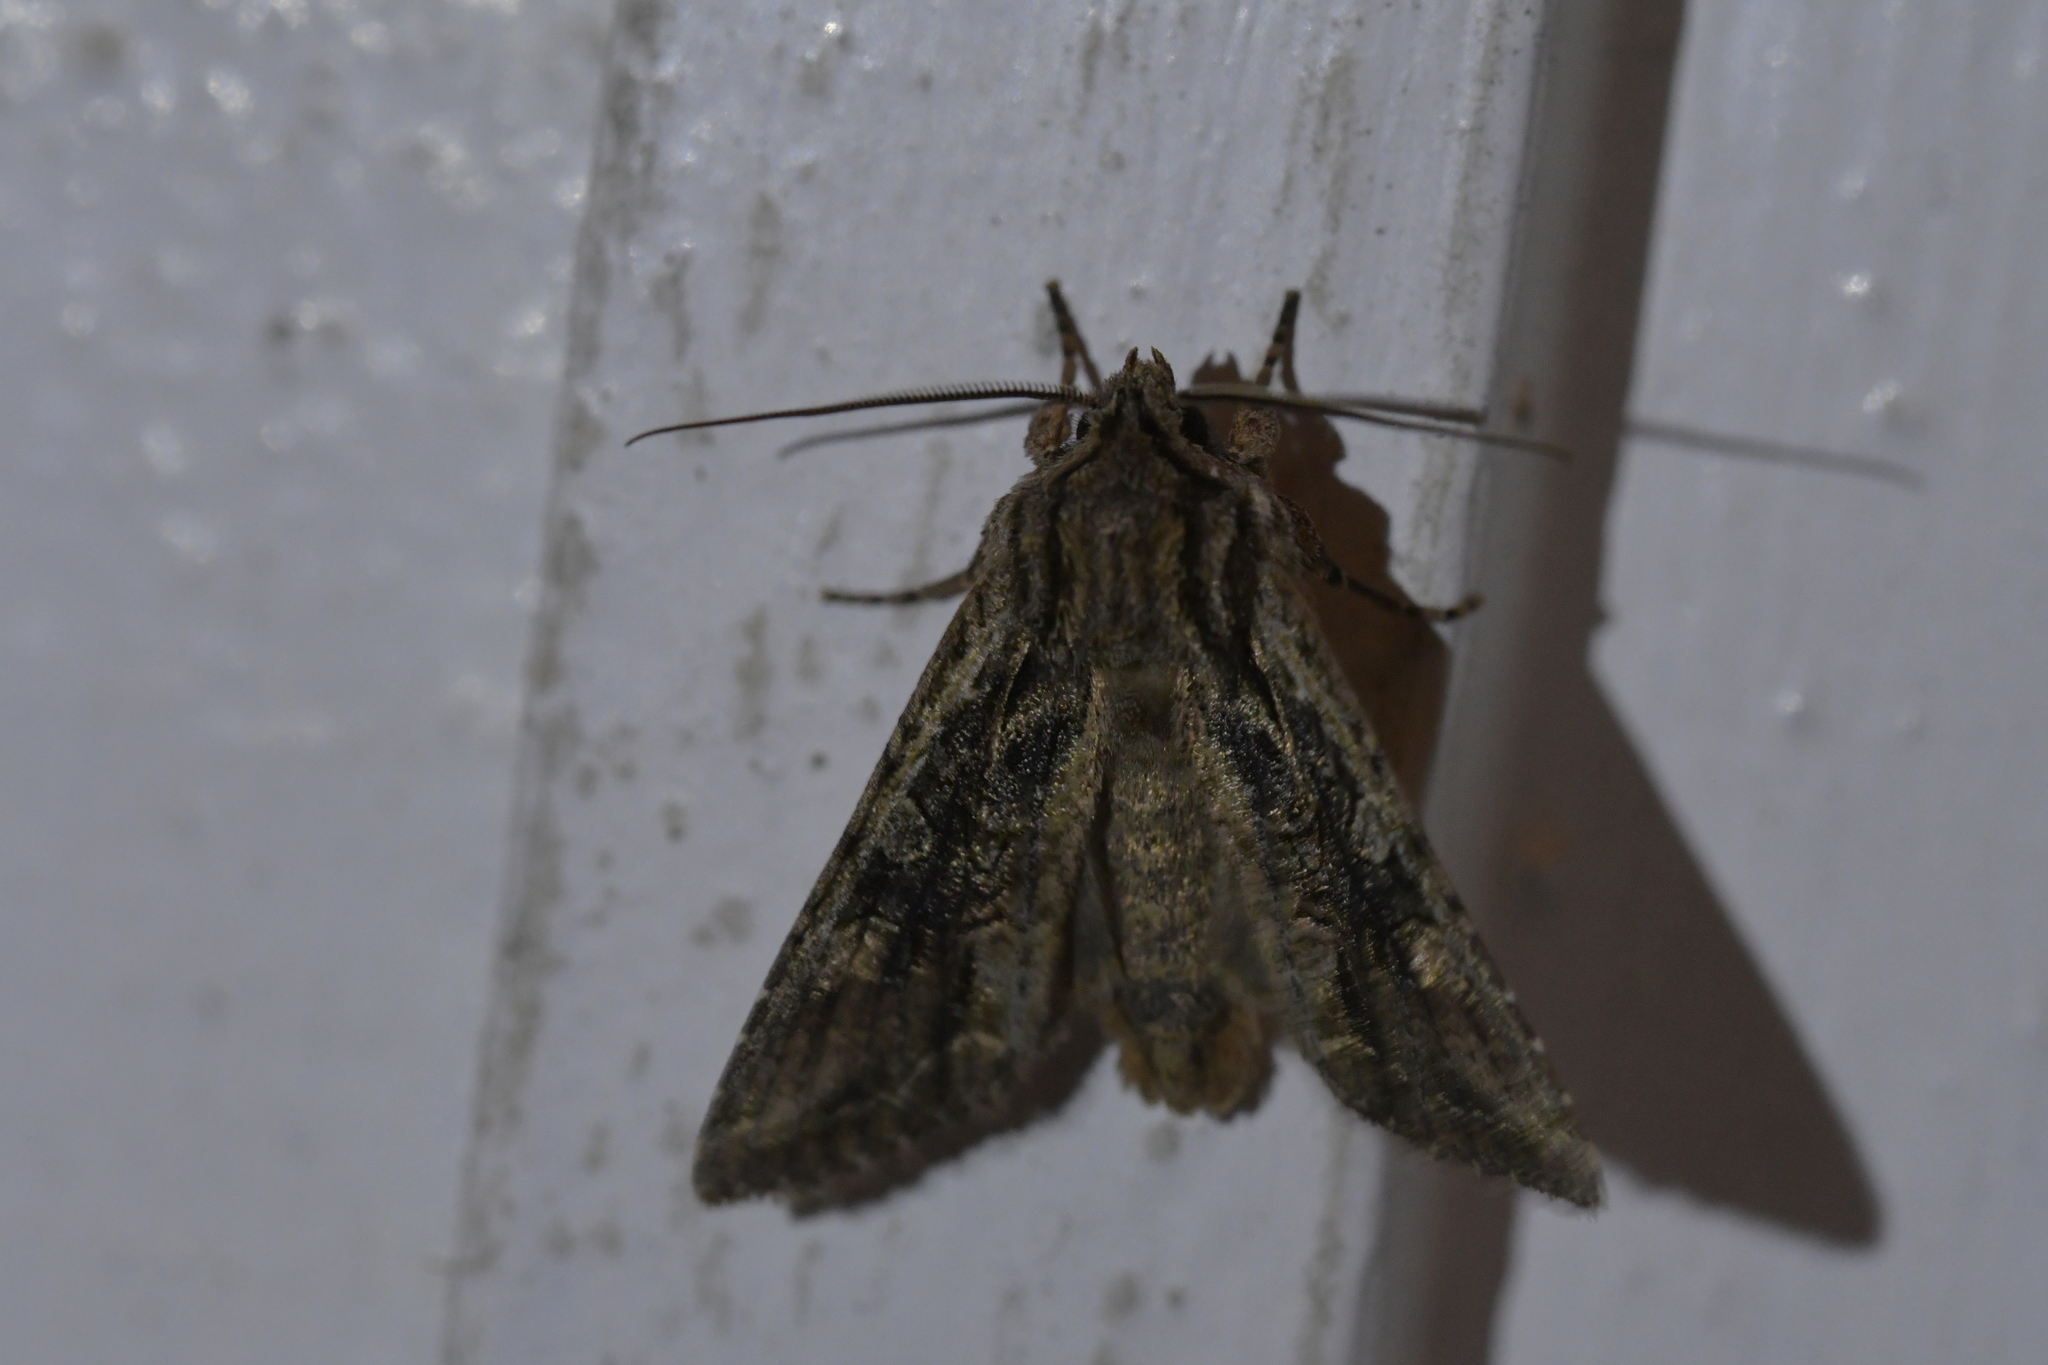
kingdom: Animalia
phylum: Arthropoda
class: Insecta
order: Lepidoptera
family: Noctuidae
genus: Ichneutica
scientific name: Ichneutica mutans
